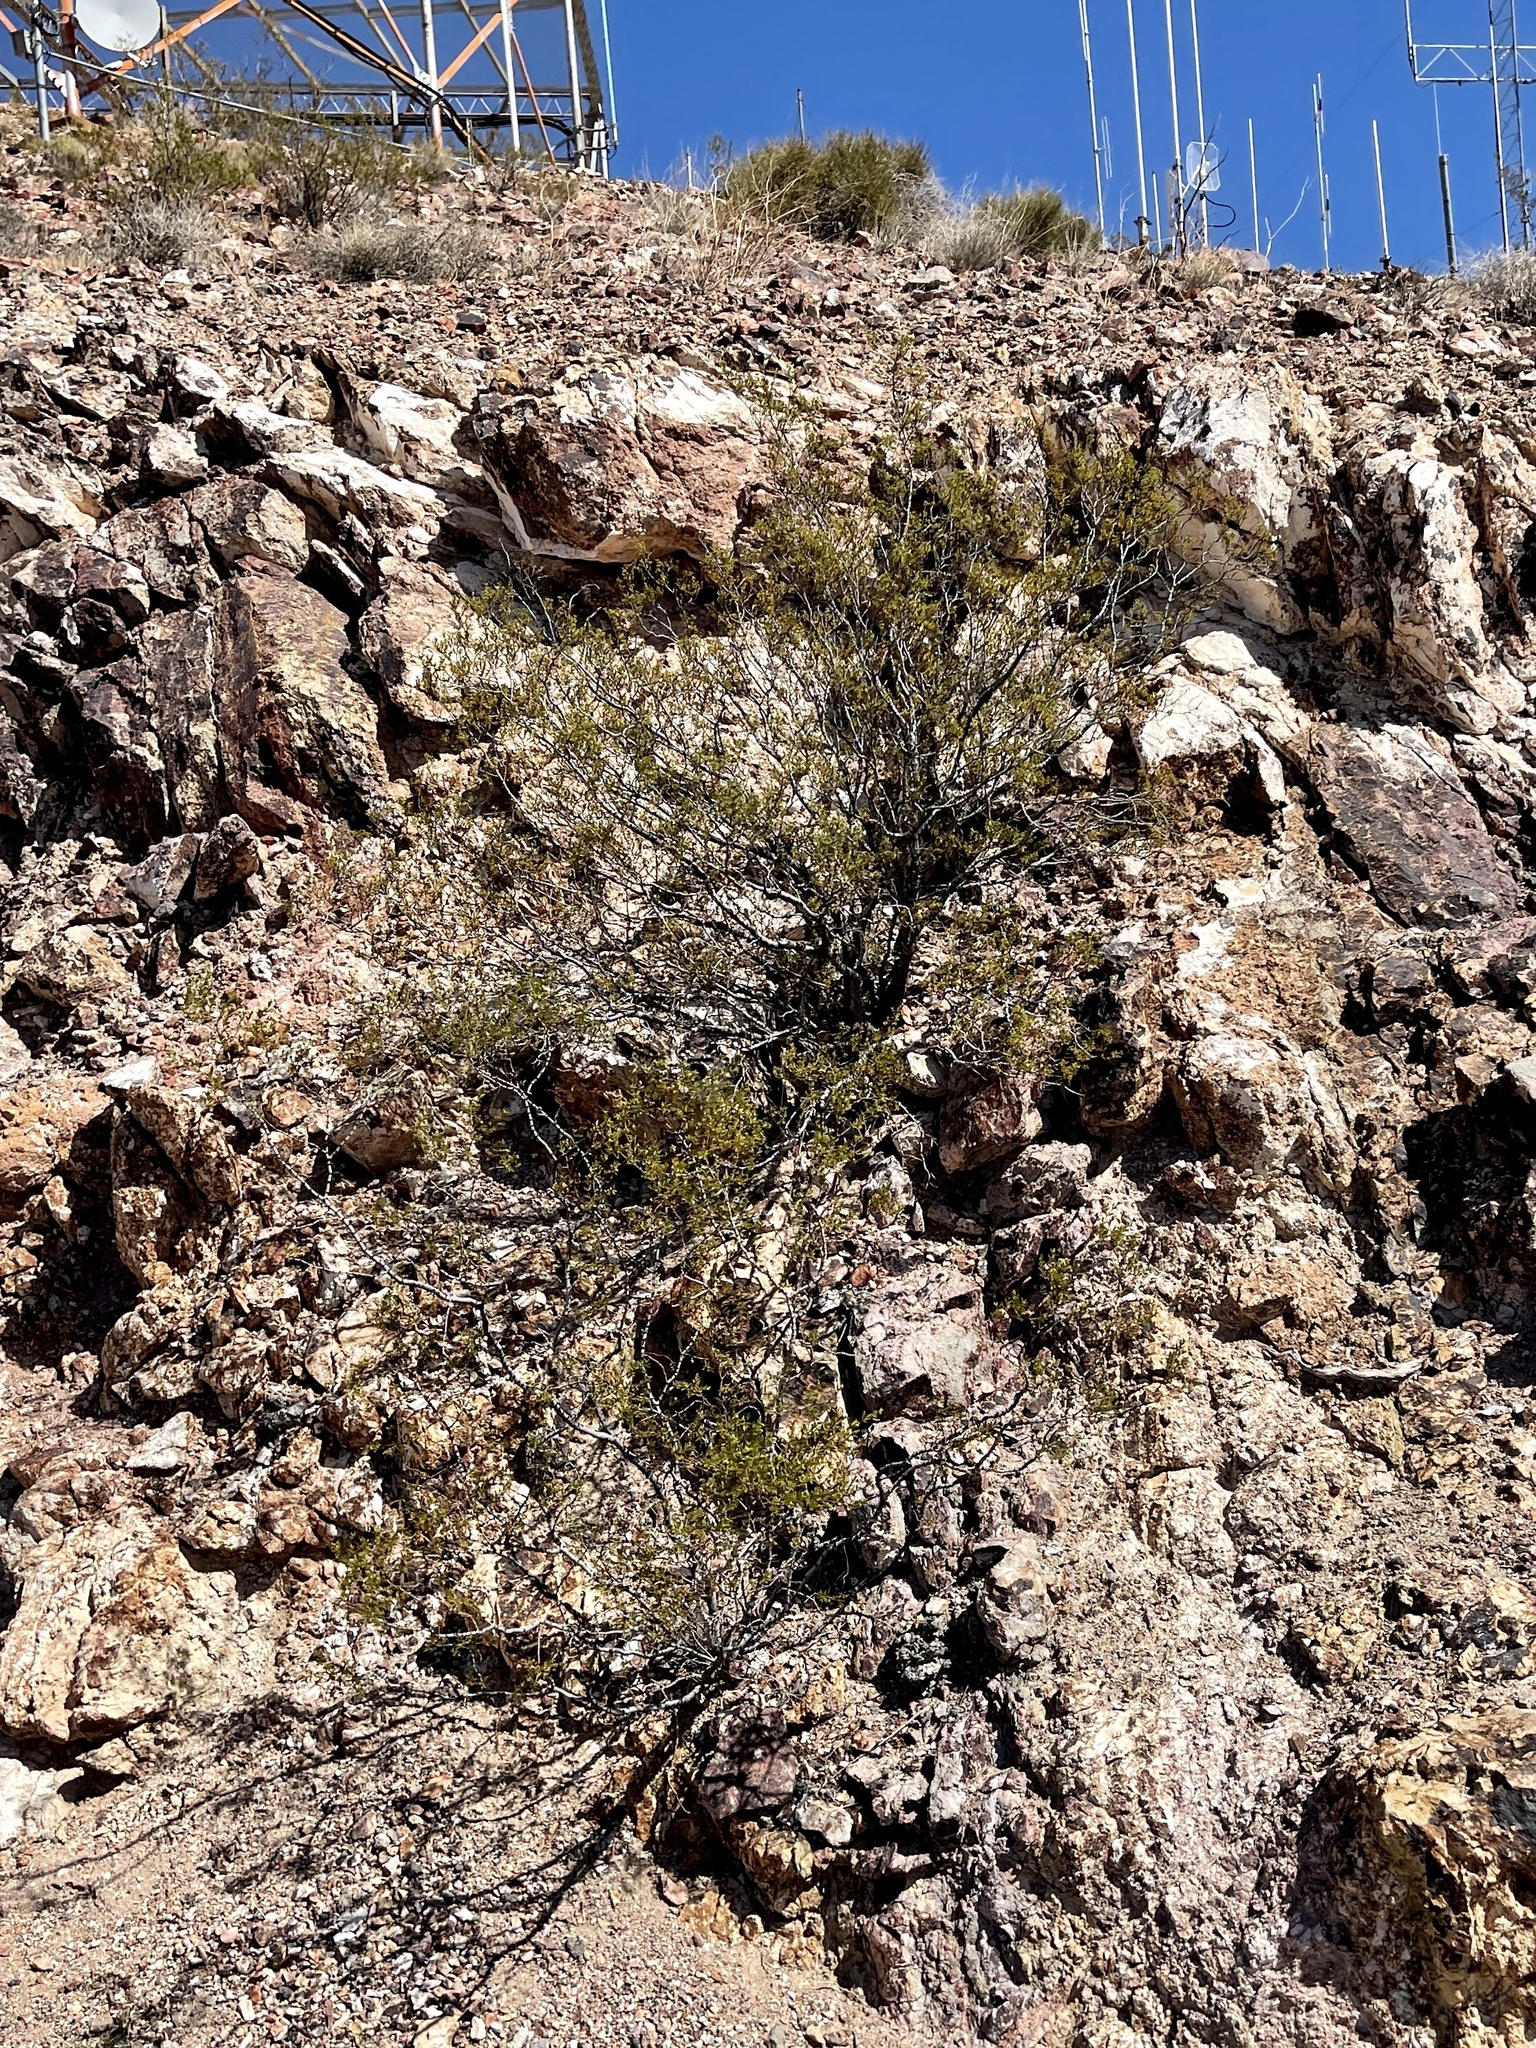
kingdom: Plantae
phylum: Tracheophyta
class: Magnoliopsida
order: Zygophyllales
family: Zygophyllaceae
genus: Larrea
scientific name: Larrea tridentata
